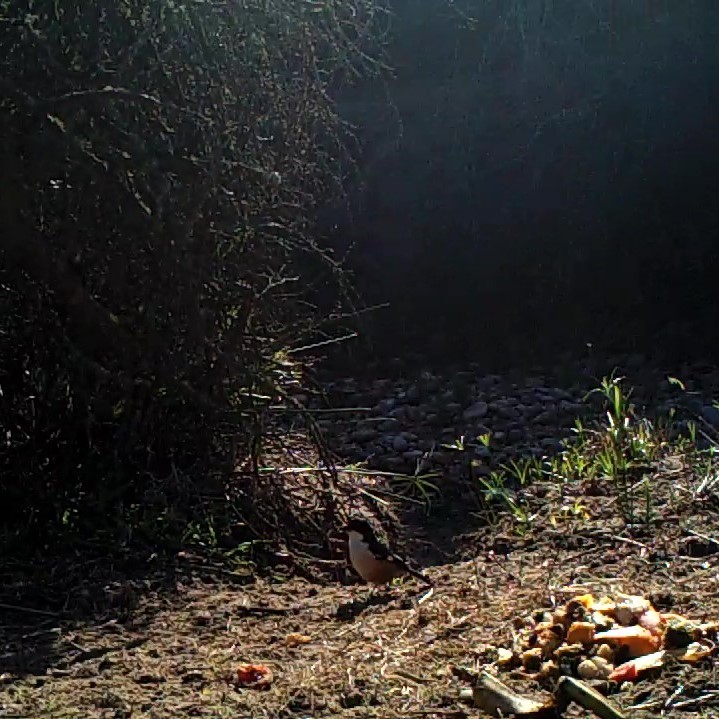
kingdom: Animalia
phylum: Chordata
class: Aves
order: Passeriformes
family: Malaconotidae
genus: Laniarius
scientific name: Laniarius ferrugineus
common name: Southern boubou
